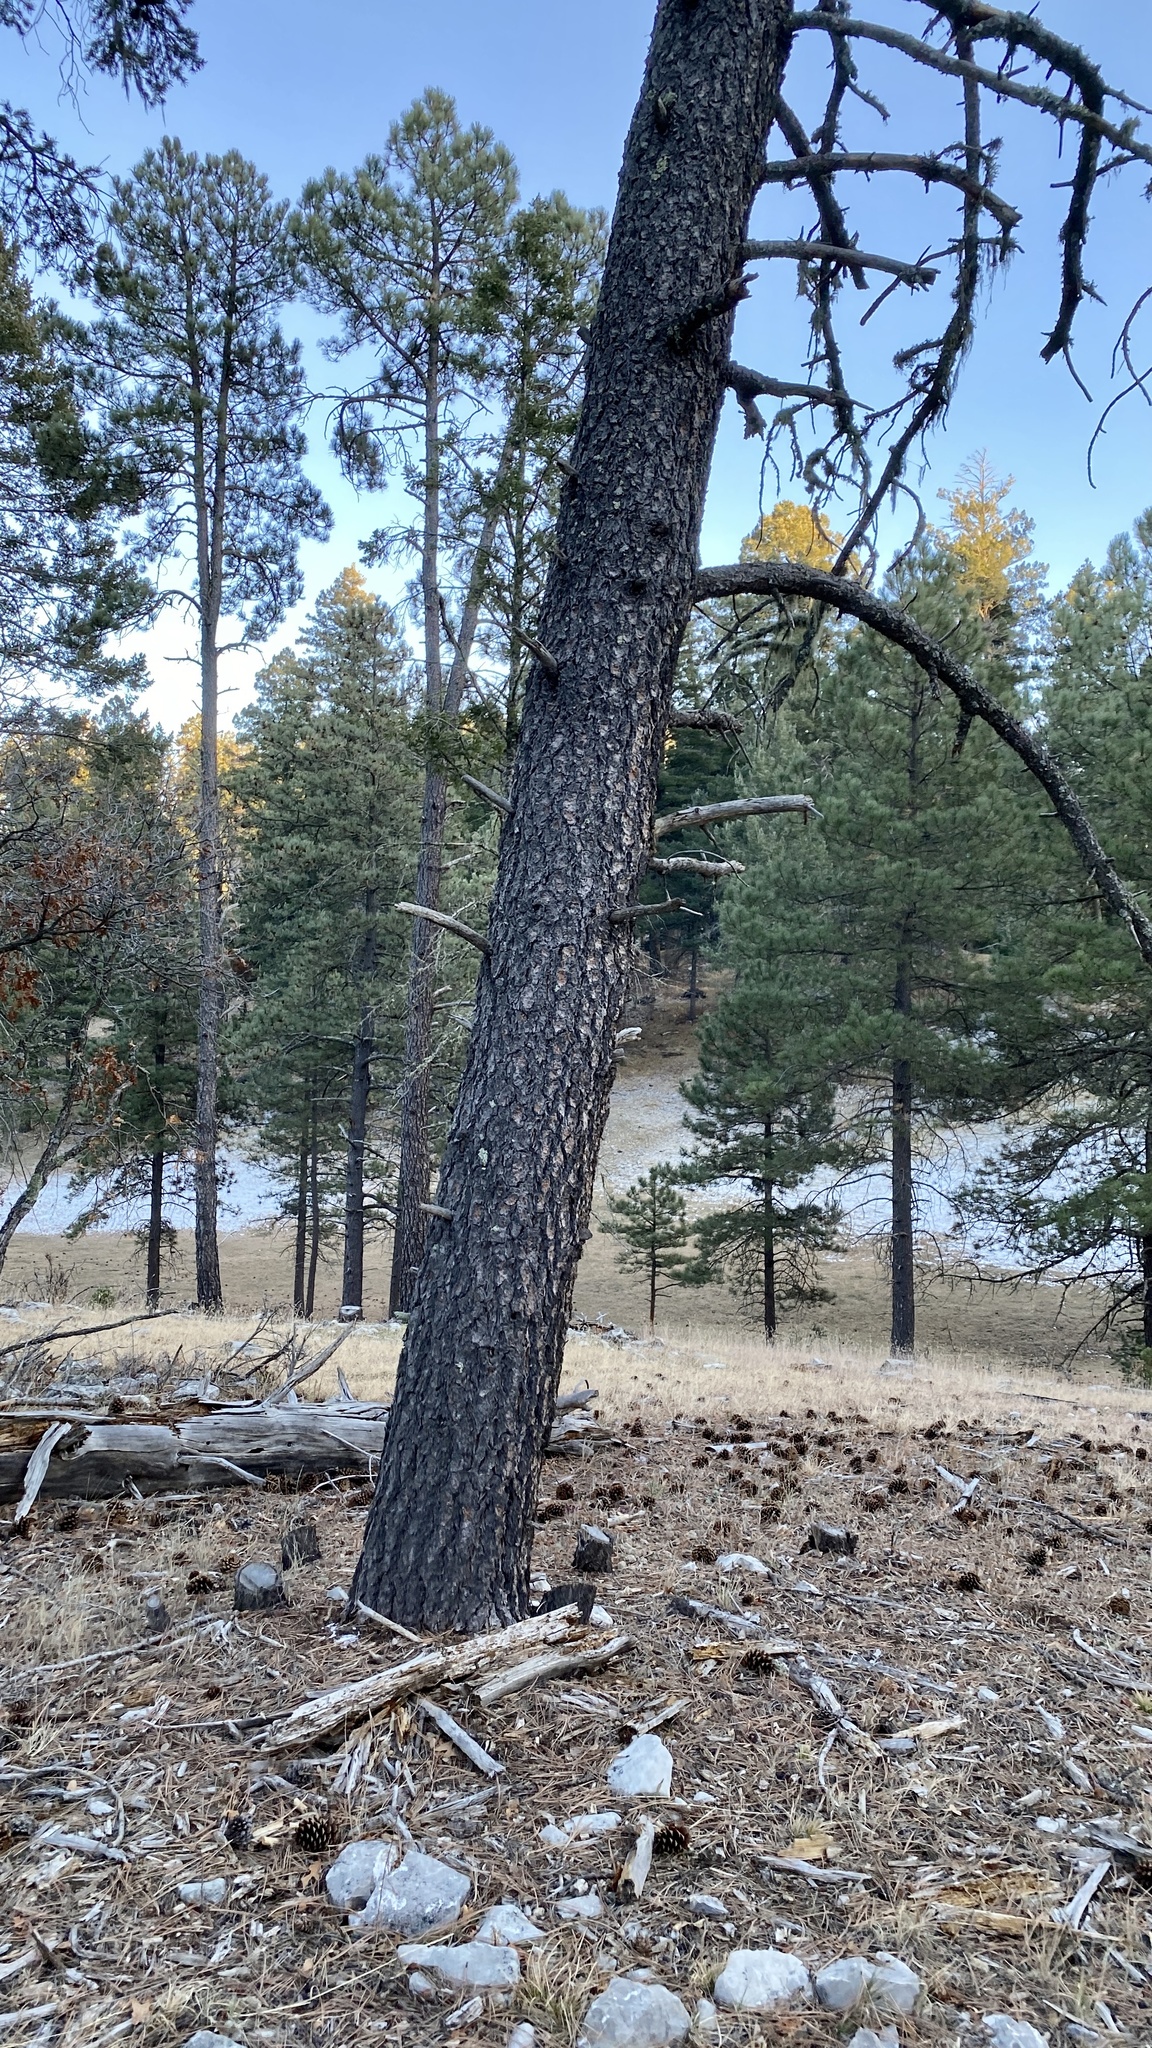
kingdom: Plantae
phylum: Tracheophyta
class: Pinopsida
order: Pinales
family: Pinaceae
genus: Pinus
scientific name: Pinus ponderosa
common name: Western yellow-pine
